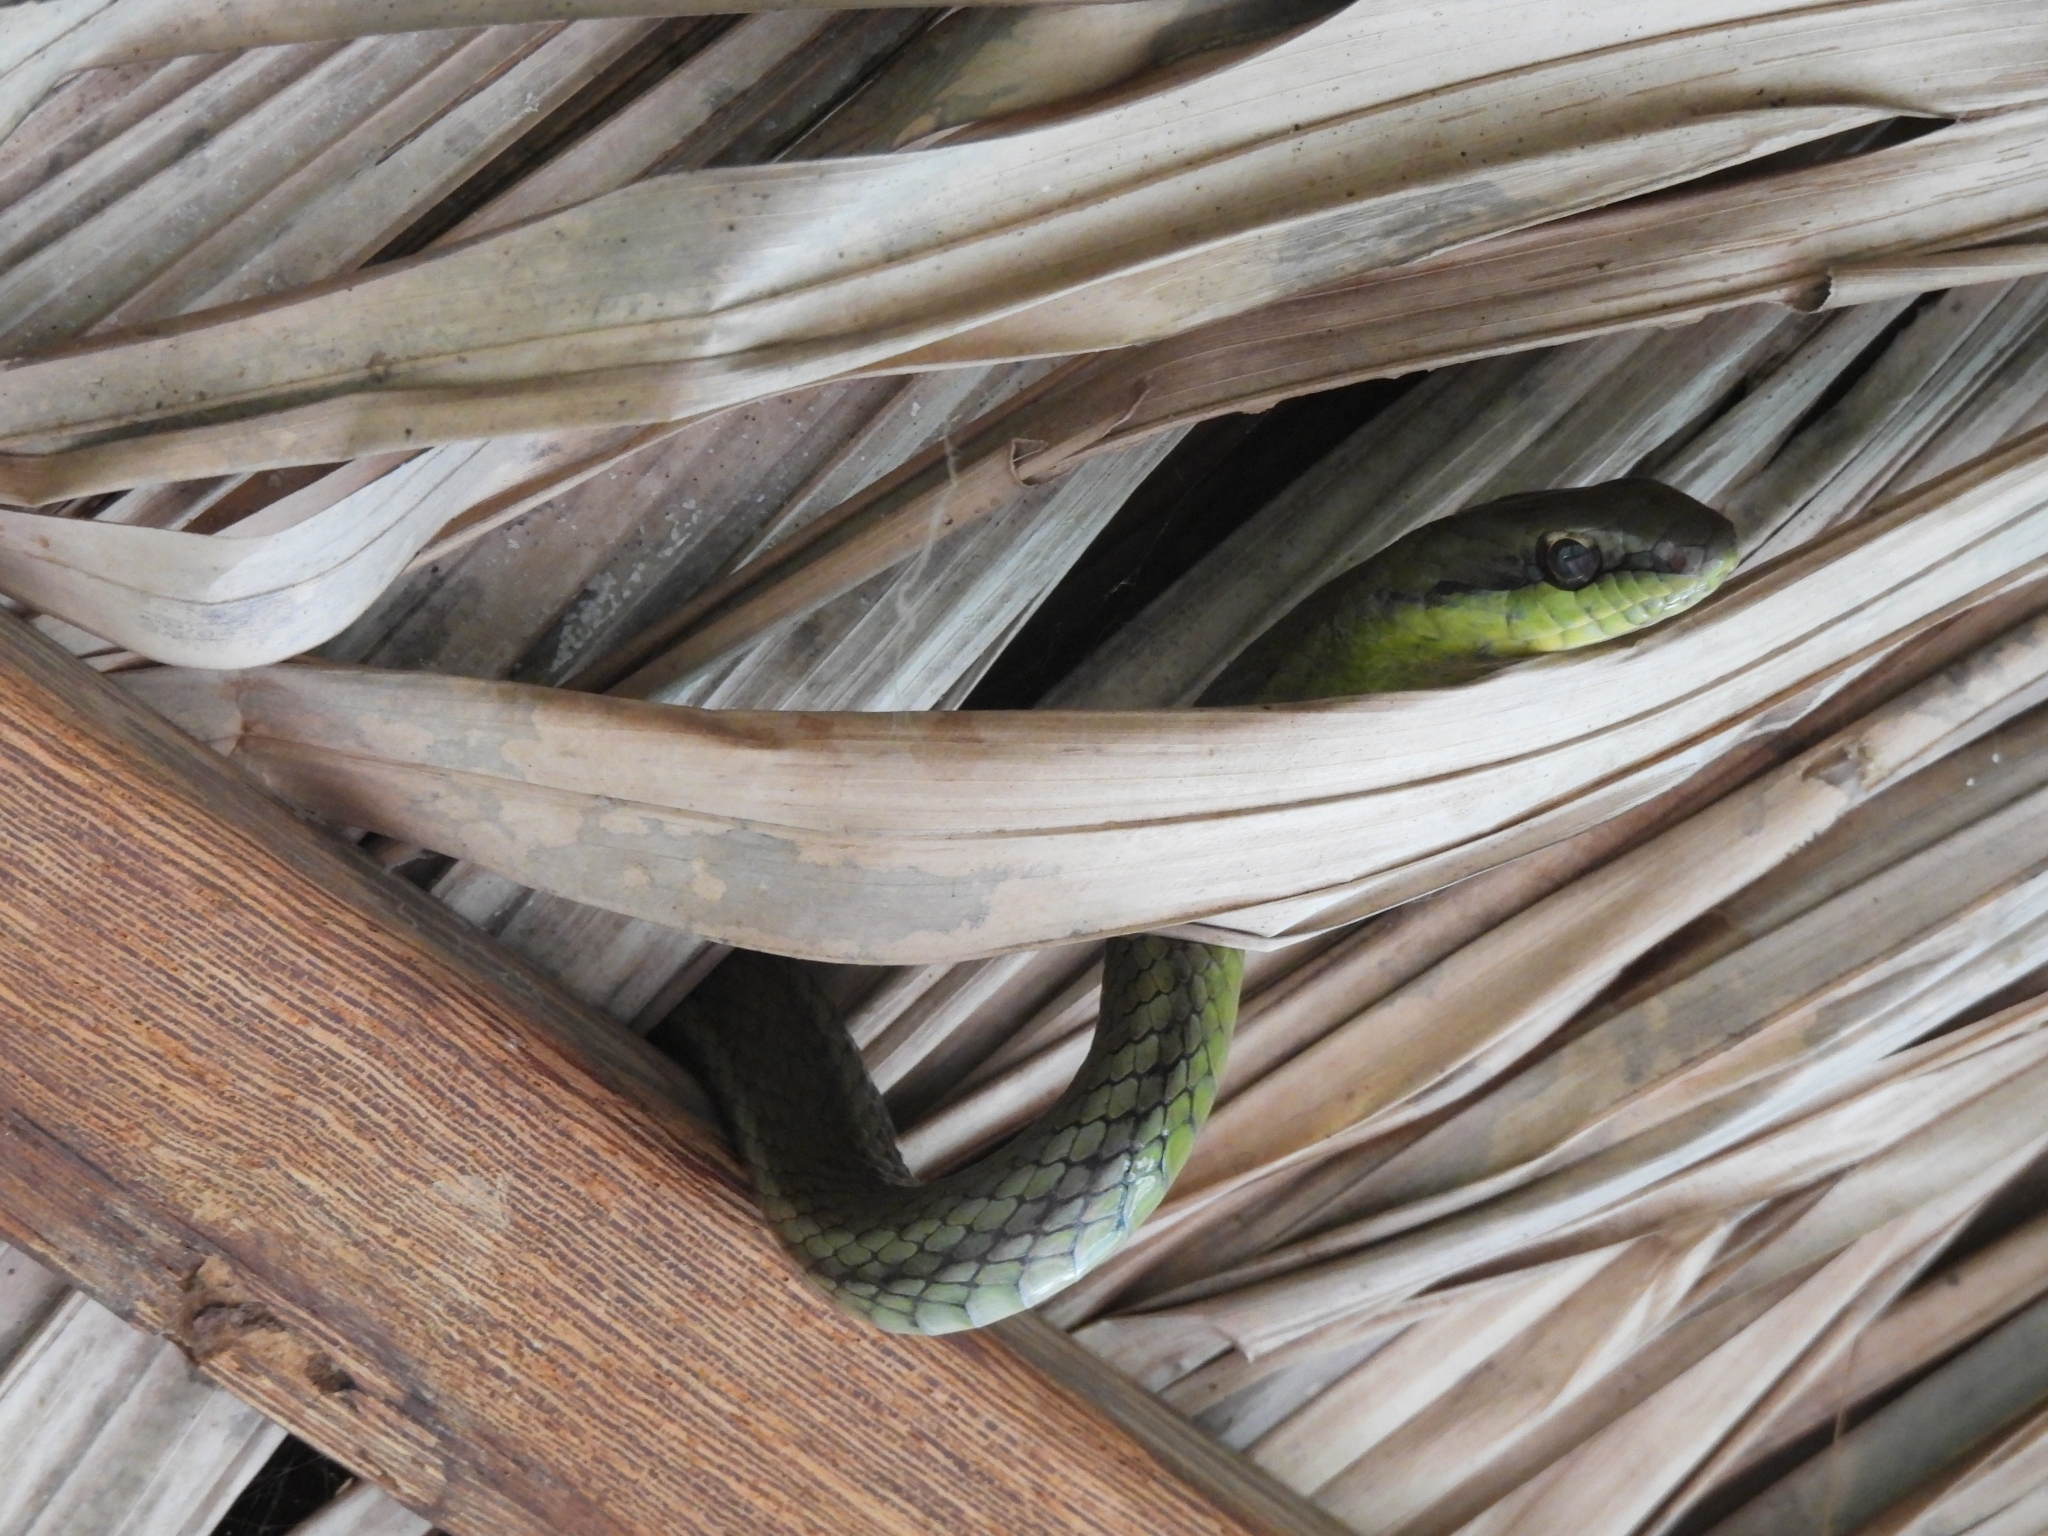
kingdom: Animalia
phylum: Chordata
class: Squamata
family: Colubridae
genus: Mastigodryas
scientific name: Mastigodryas boddaerti
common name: Boddaert's tropical racer
